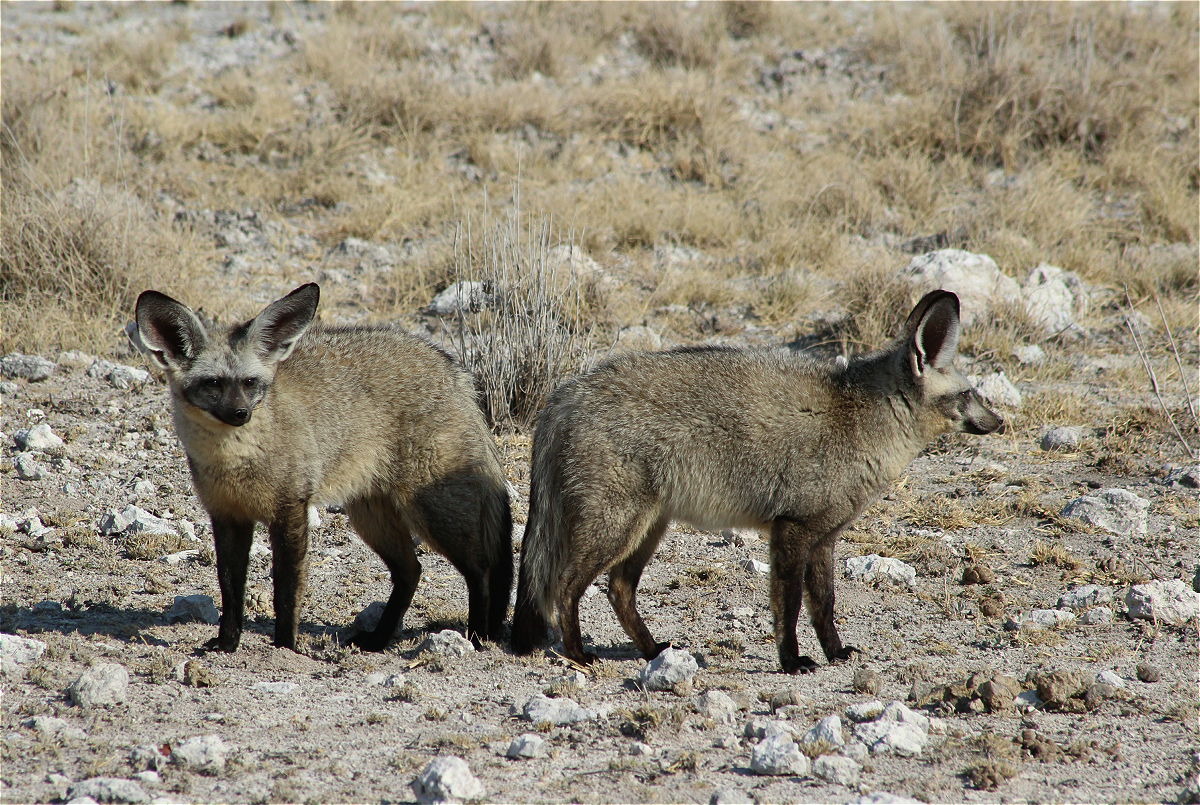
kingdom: Animalia
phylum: Chordata
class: Mammalia
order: Carnivora
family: Canidae
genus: Otocyon
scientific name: Otocyon megalotis
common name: Bat-eared fox
